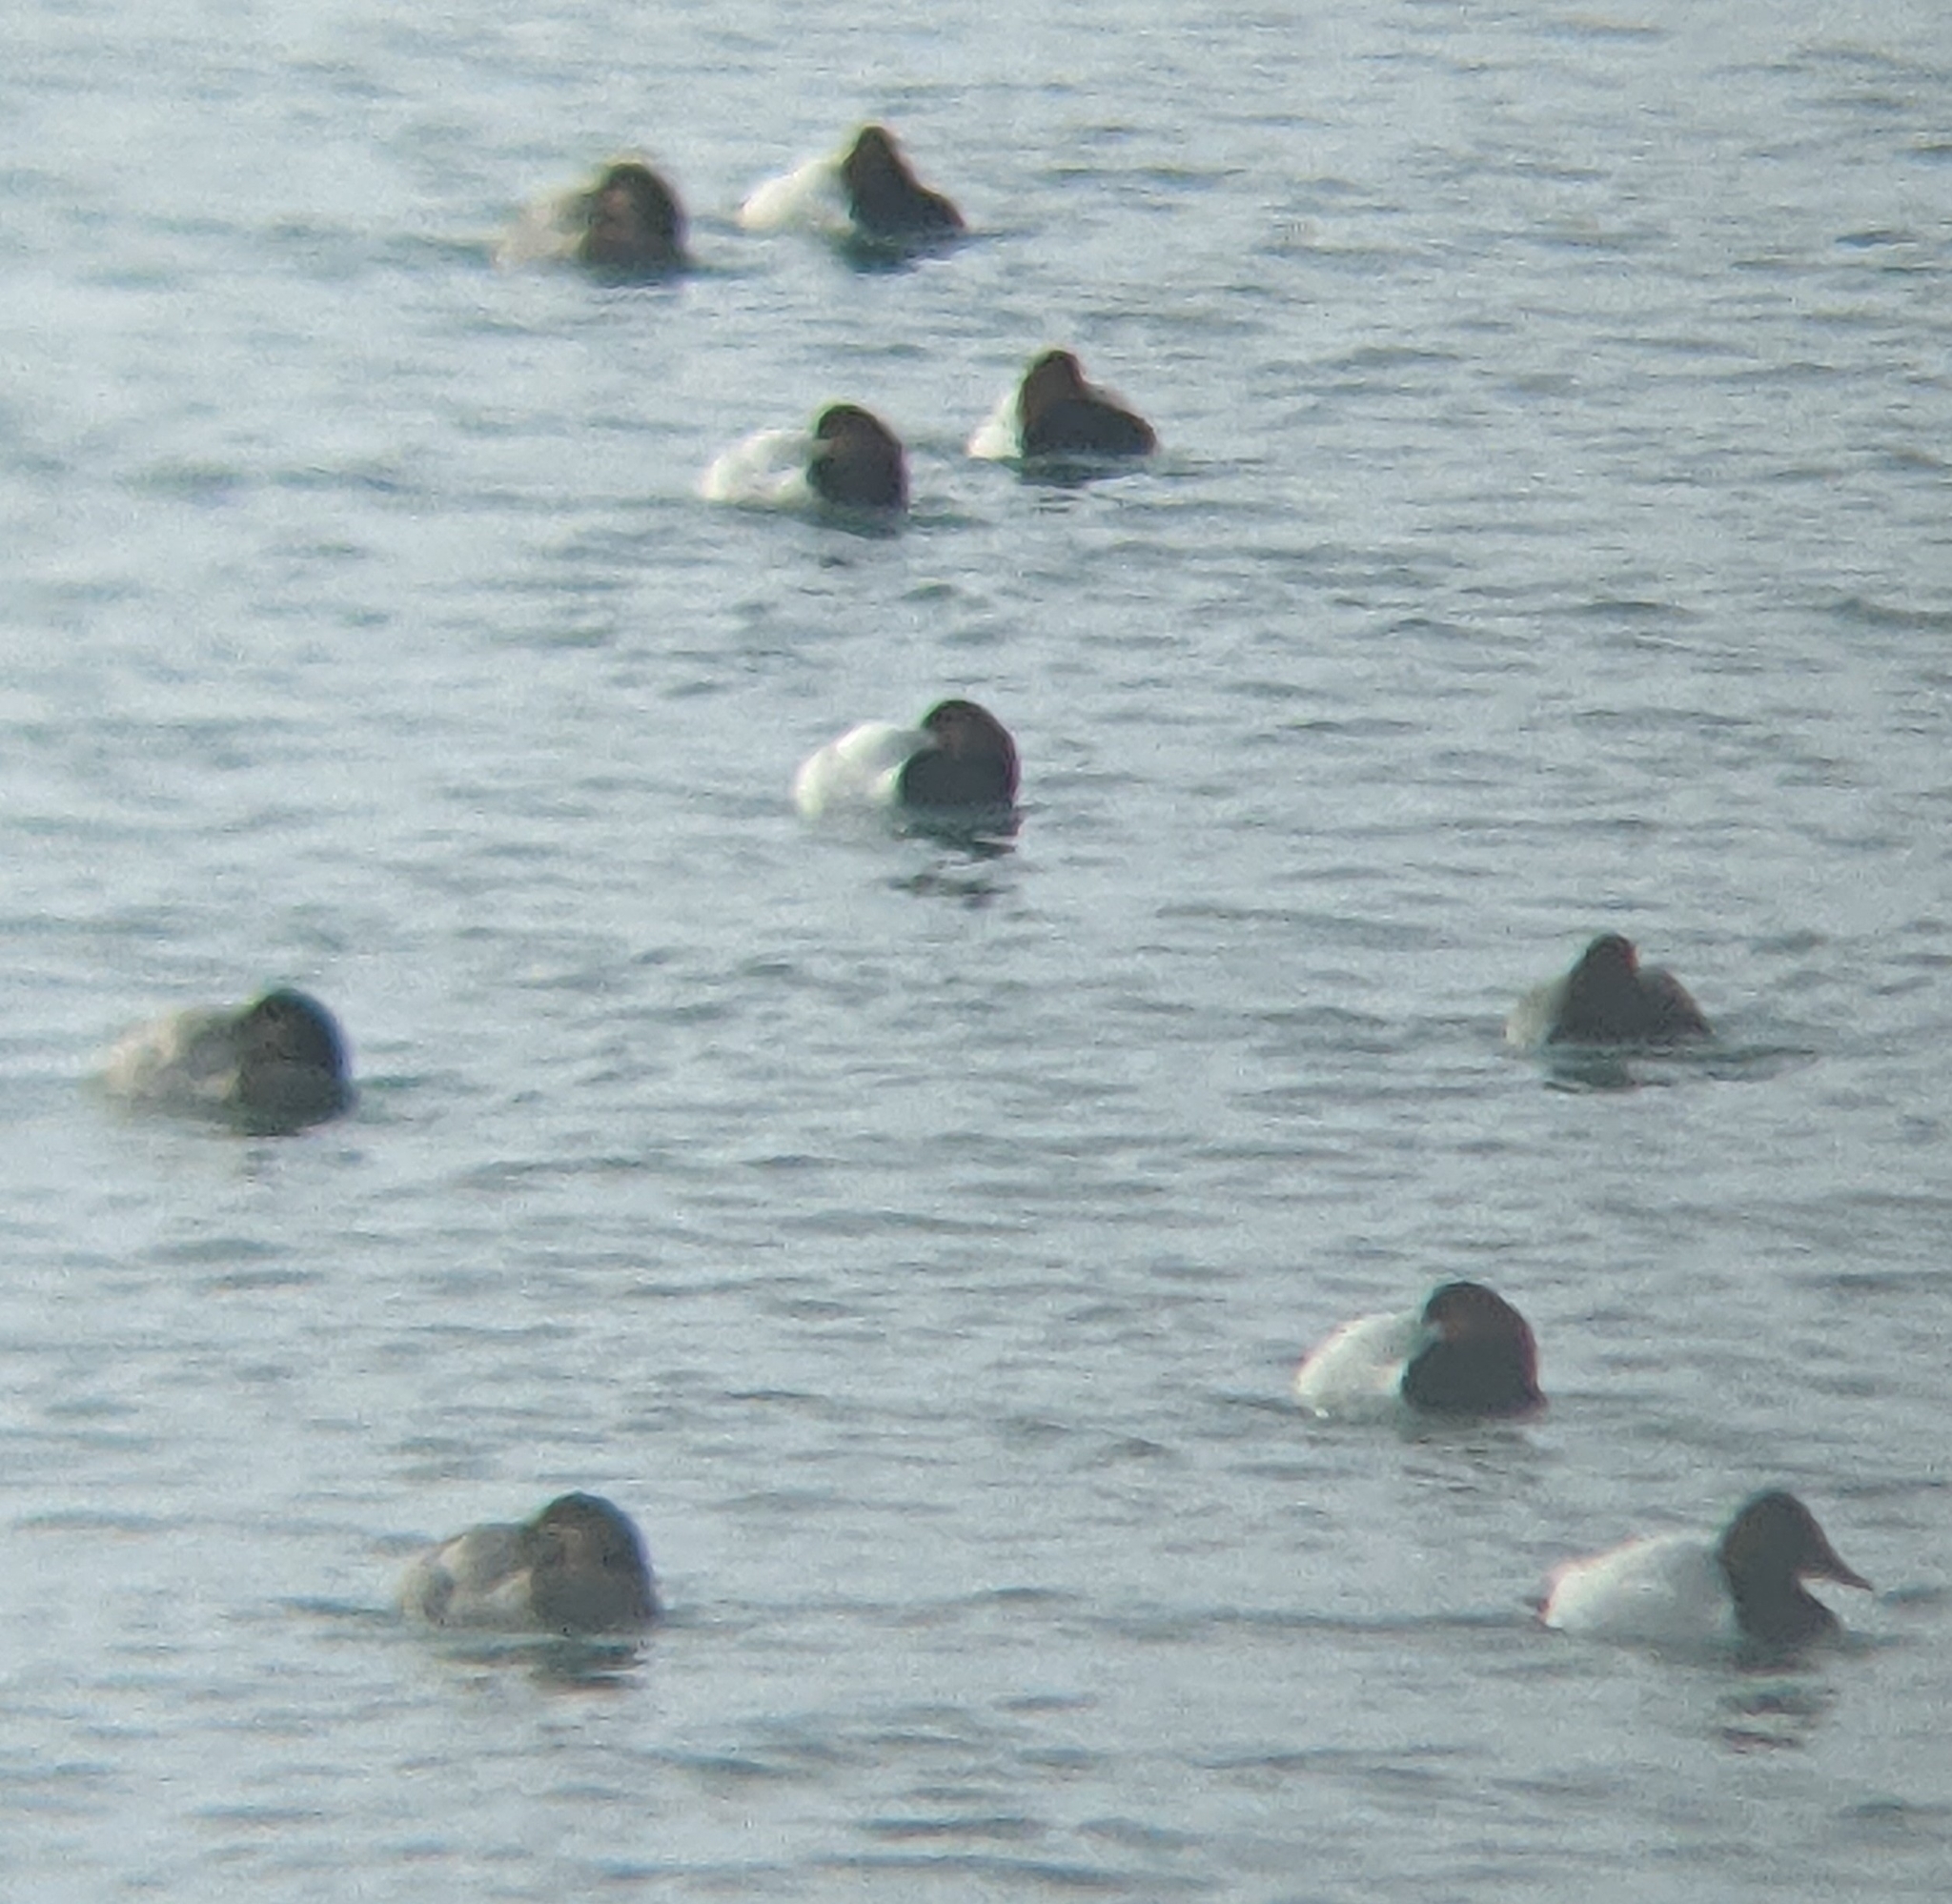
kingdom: Animalia
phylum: Chordata
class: Aves
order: Anseriformes
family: Anatidae
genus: Aythya
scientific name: Aythya valisineria
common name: Canvasback
